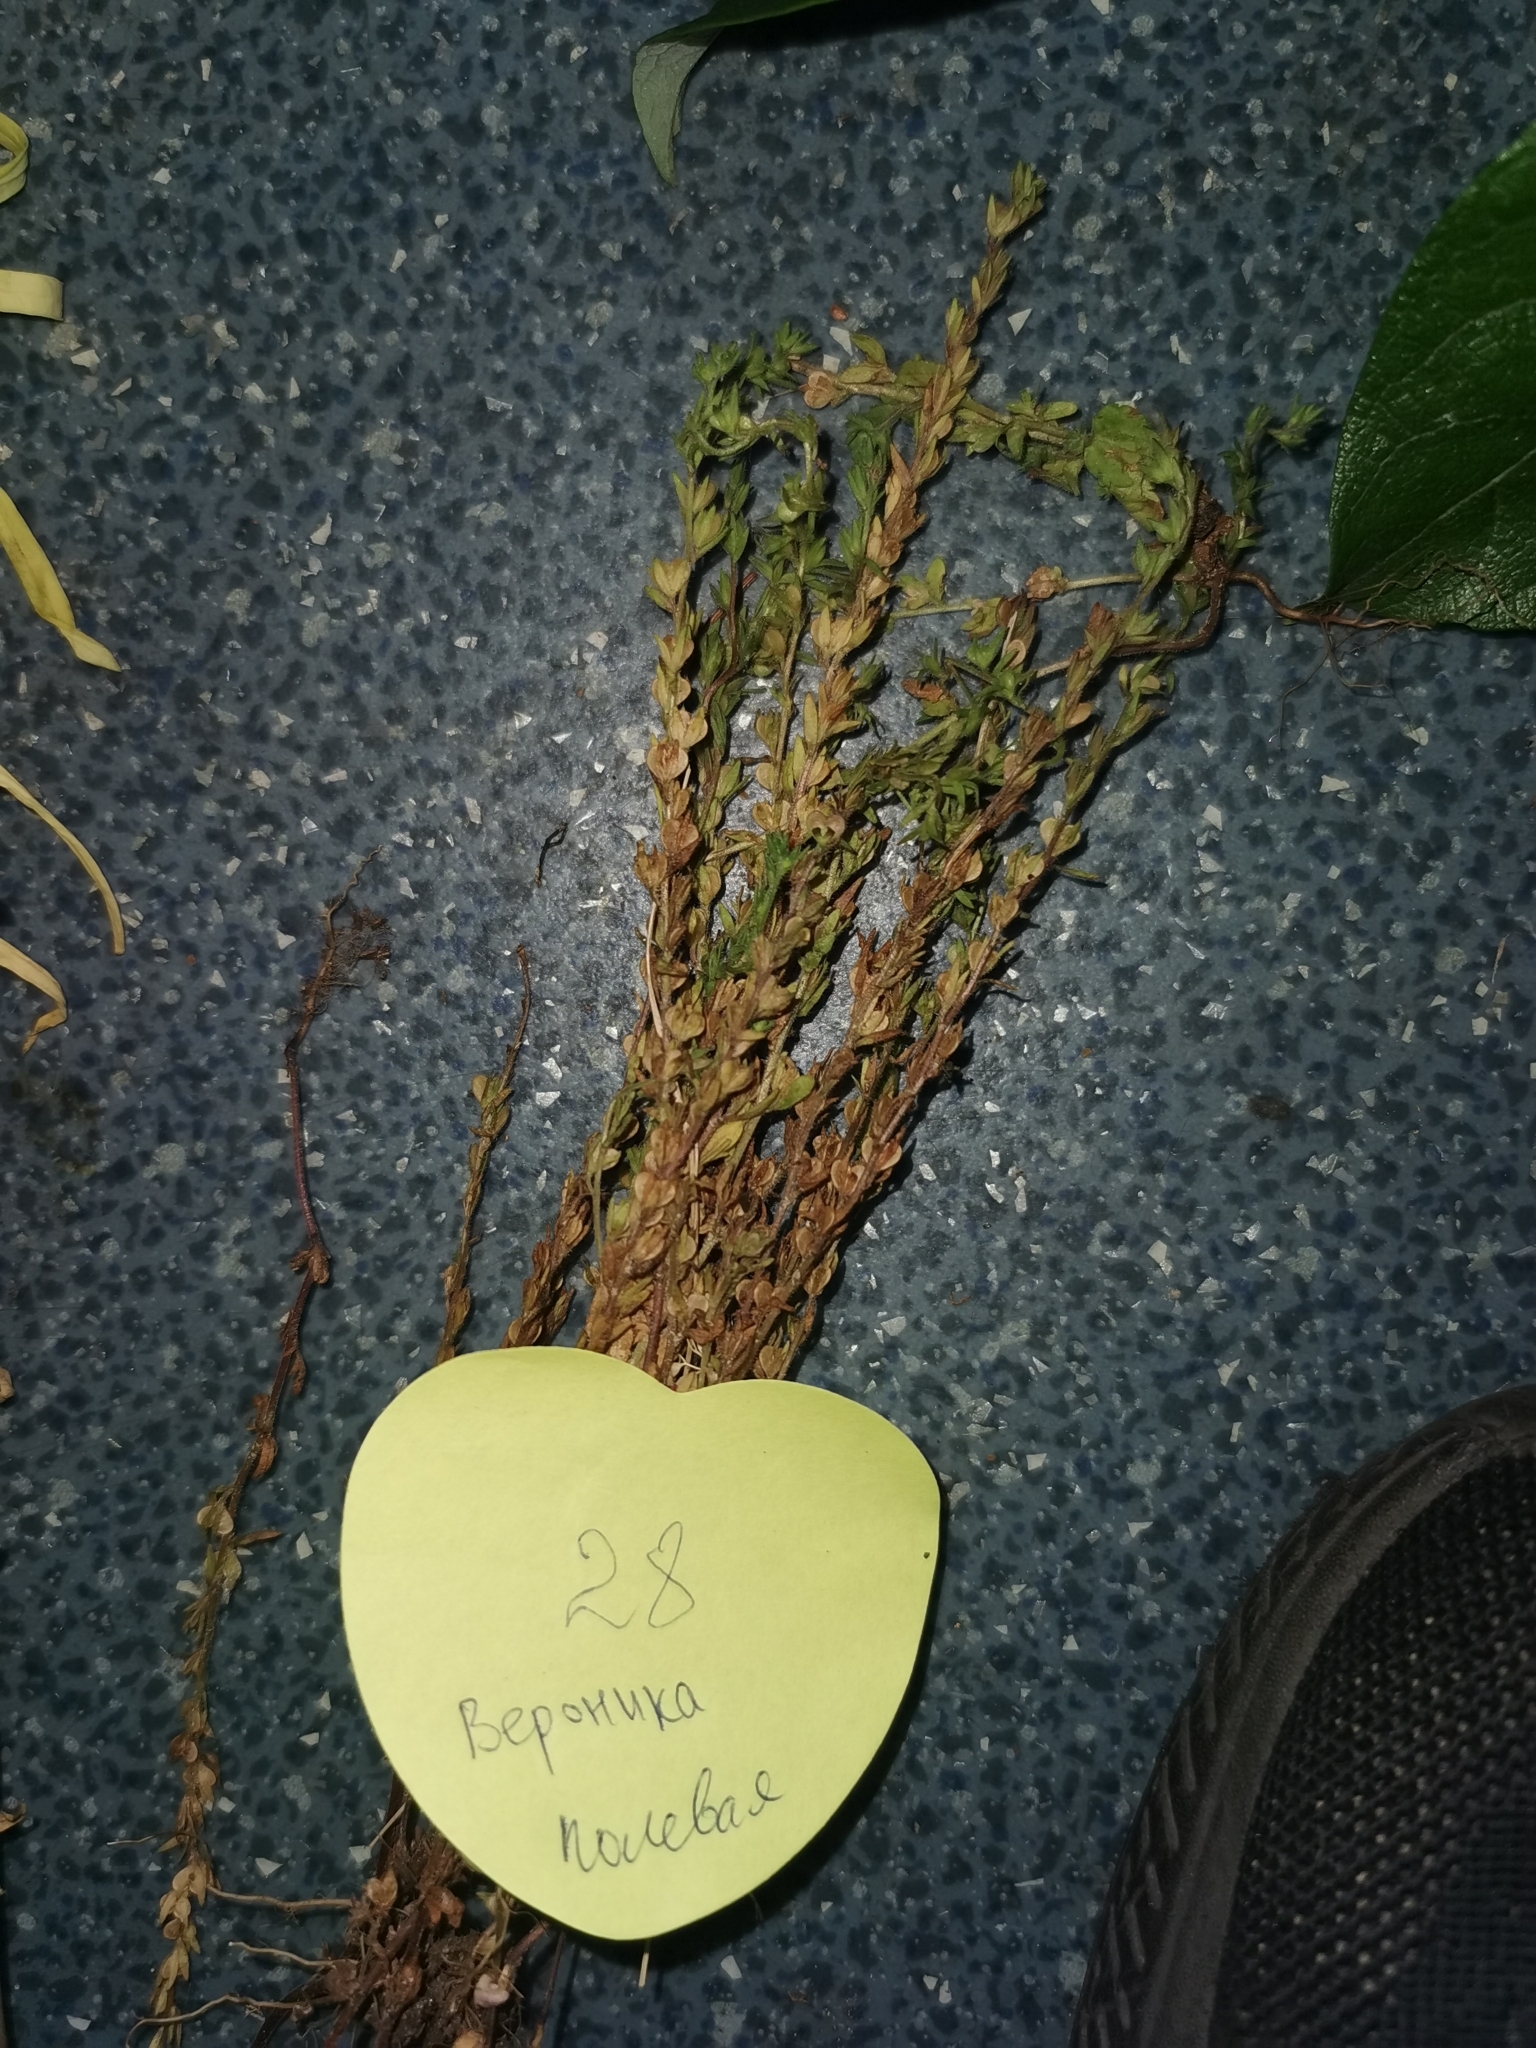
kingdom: Plantae
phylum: Tracheophyta
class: Magnoliopsida
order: Lamiales
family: Plantaginaceae
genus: Veronica
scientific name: Veronica verna
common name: Spring speedwell
